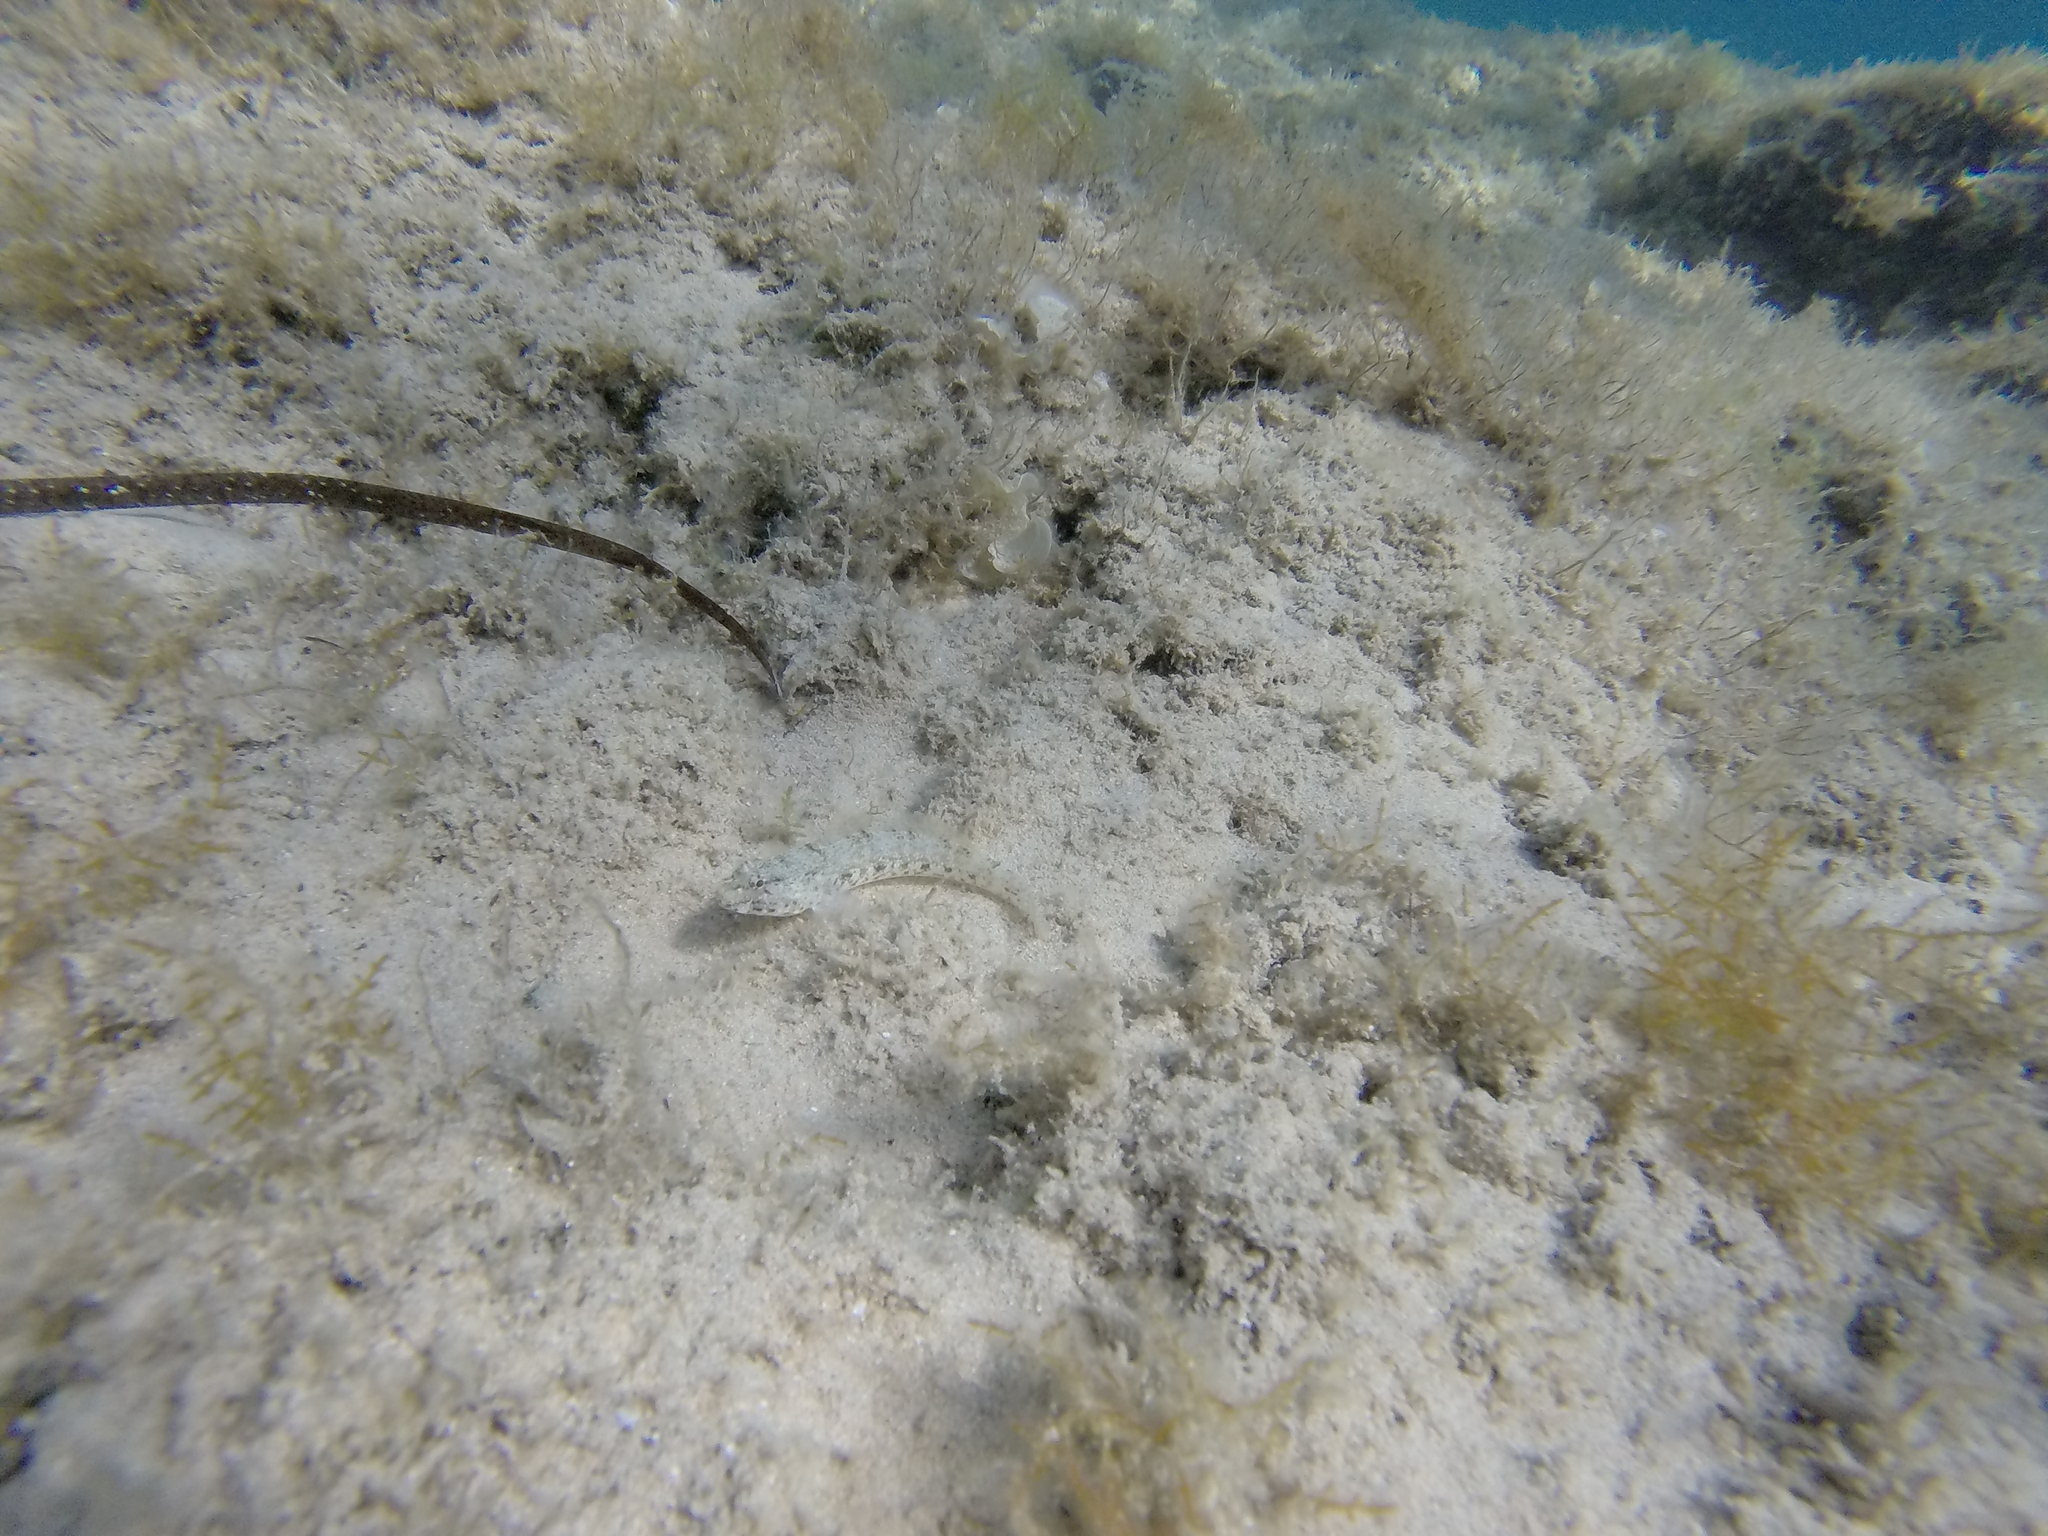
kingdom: Animalia
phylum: Chordata
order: Perciformes
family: Gobiidae
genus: Gobius
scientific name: Gobius incognitus
